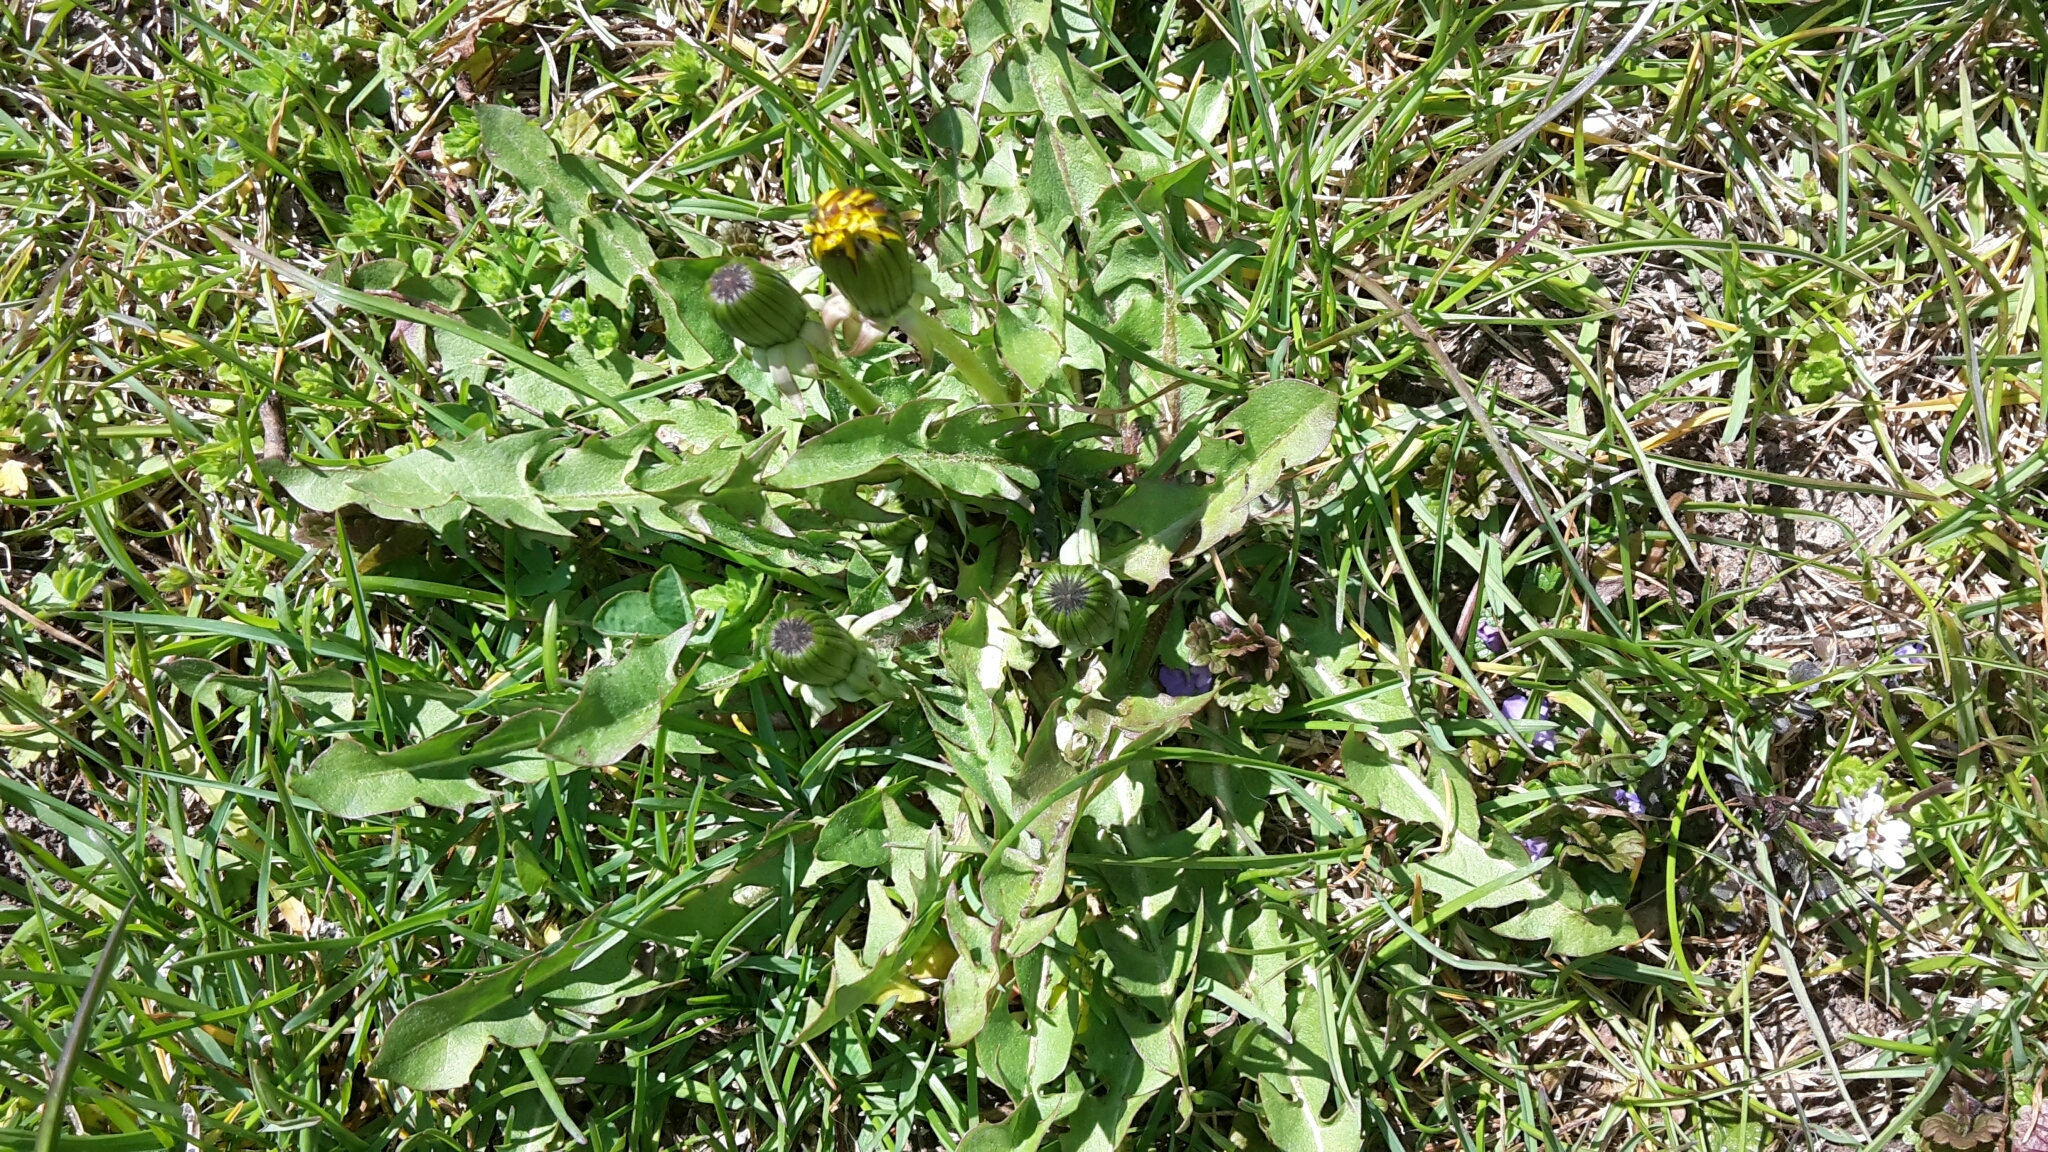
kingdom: Plantae
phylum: Tracheophyta
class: Magnoliopsida
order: Asterales
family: Asteraceae
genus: Taraxacum
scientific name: Taraxacum officinale
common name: Common dandelion
